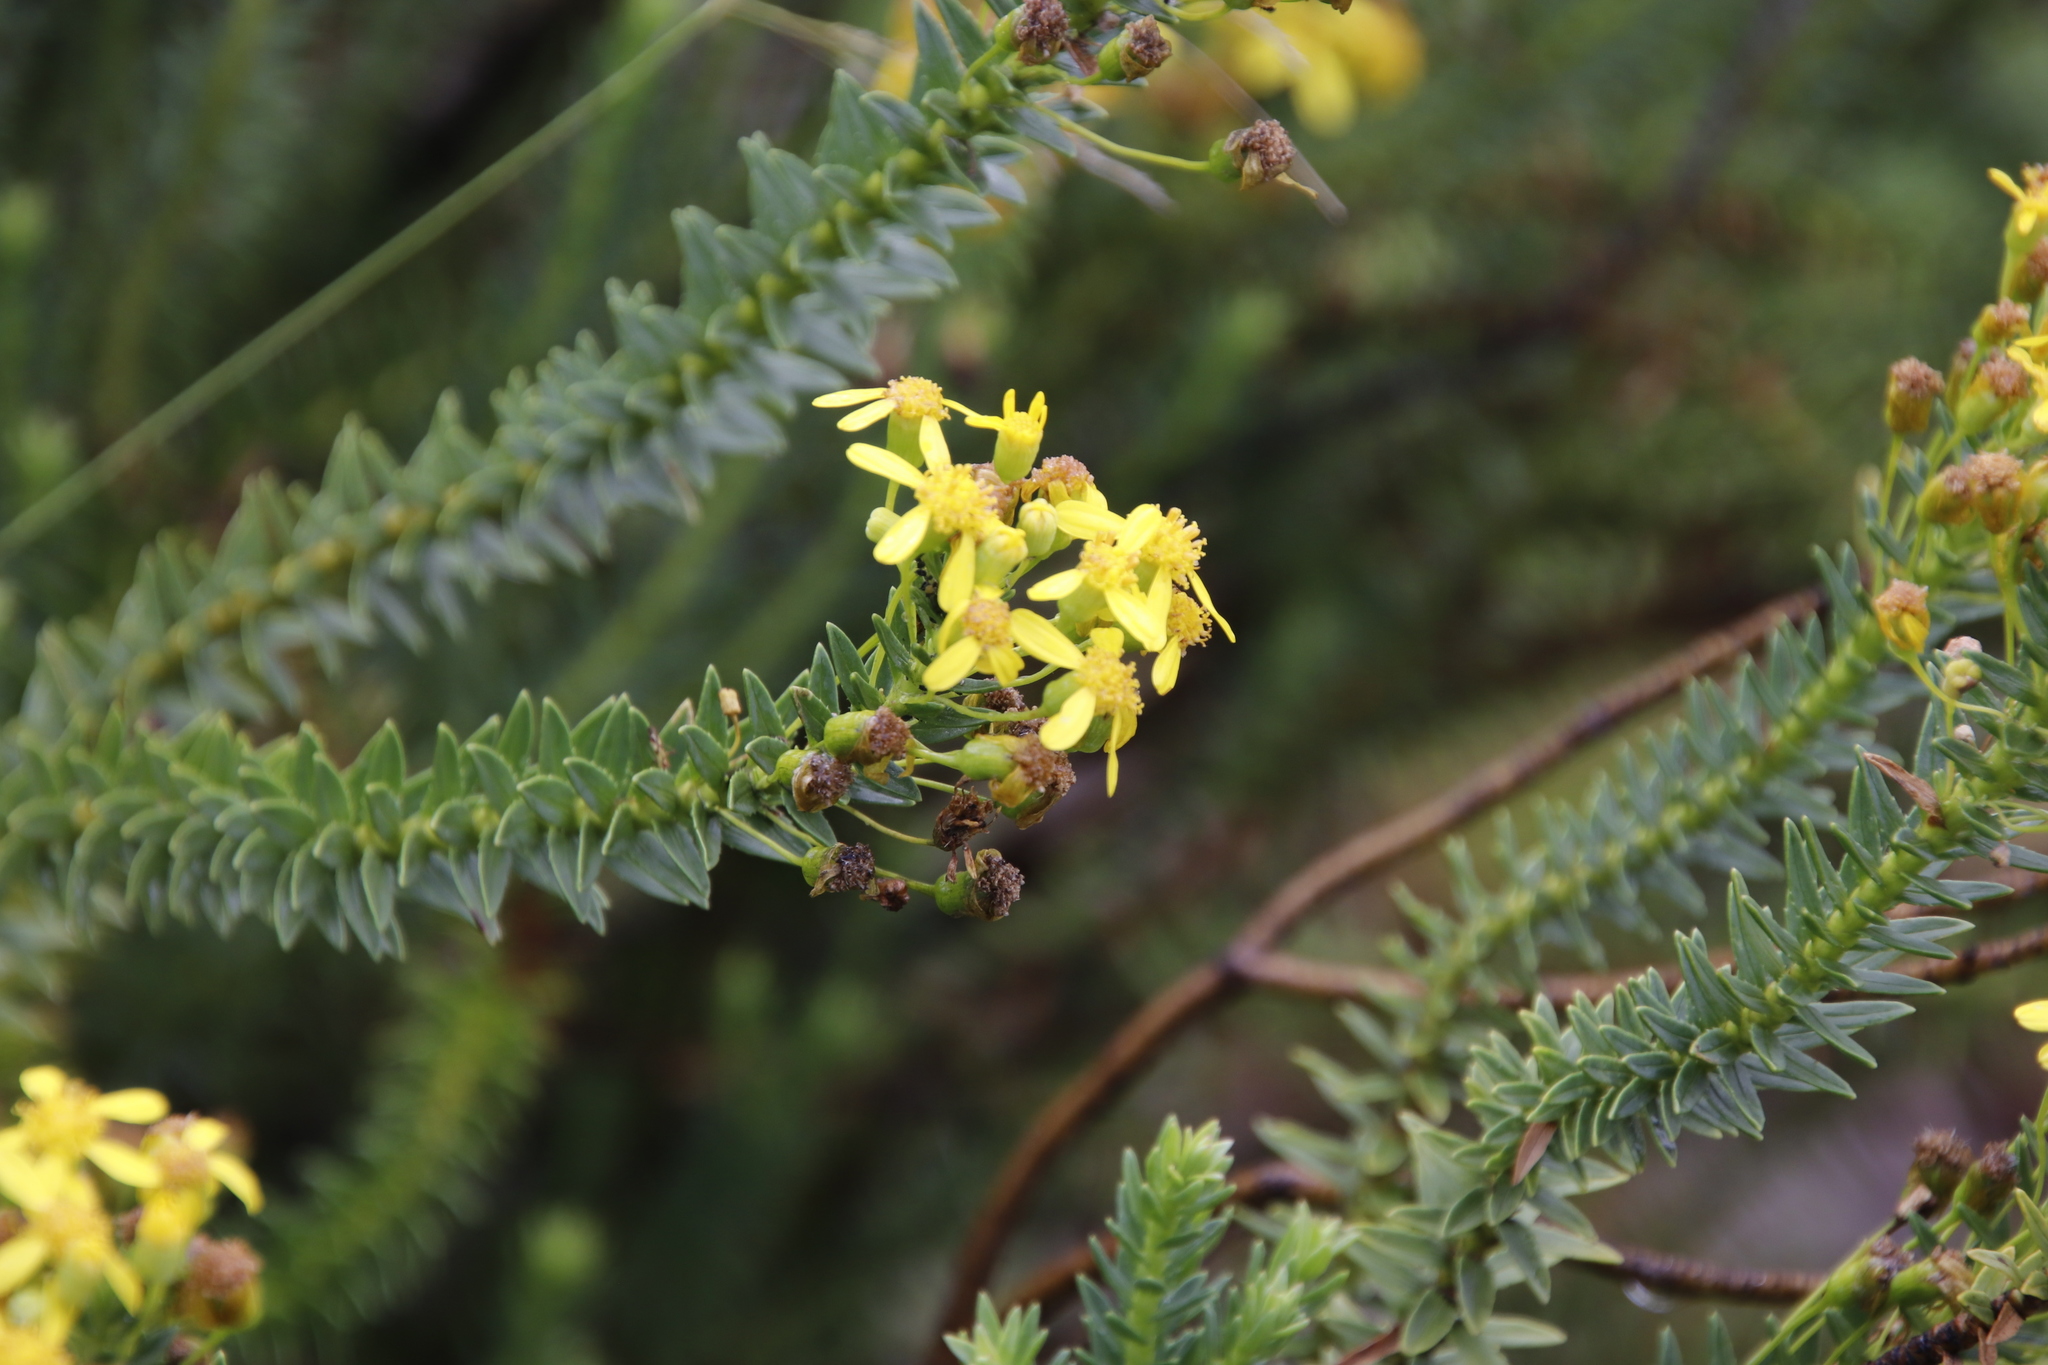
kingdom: Plantae
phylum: Tracheophyta
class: Magnoliopsida
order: Asterales
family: Asteraceae
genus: Euryops
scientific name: Euryops tysonii
